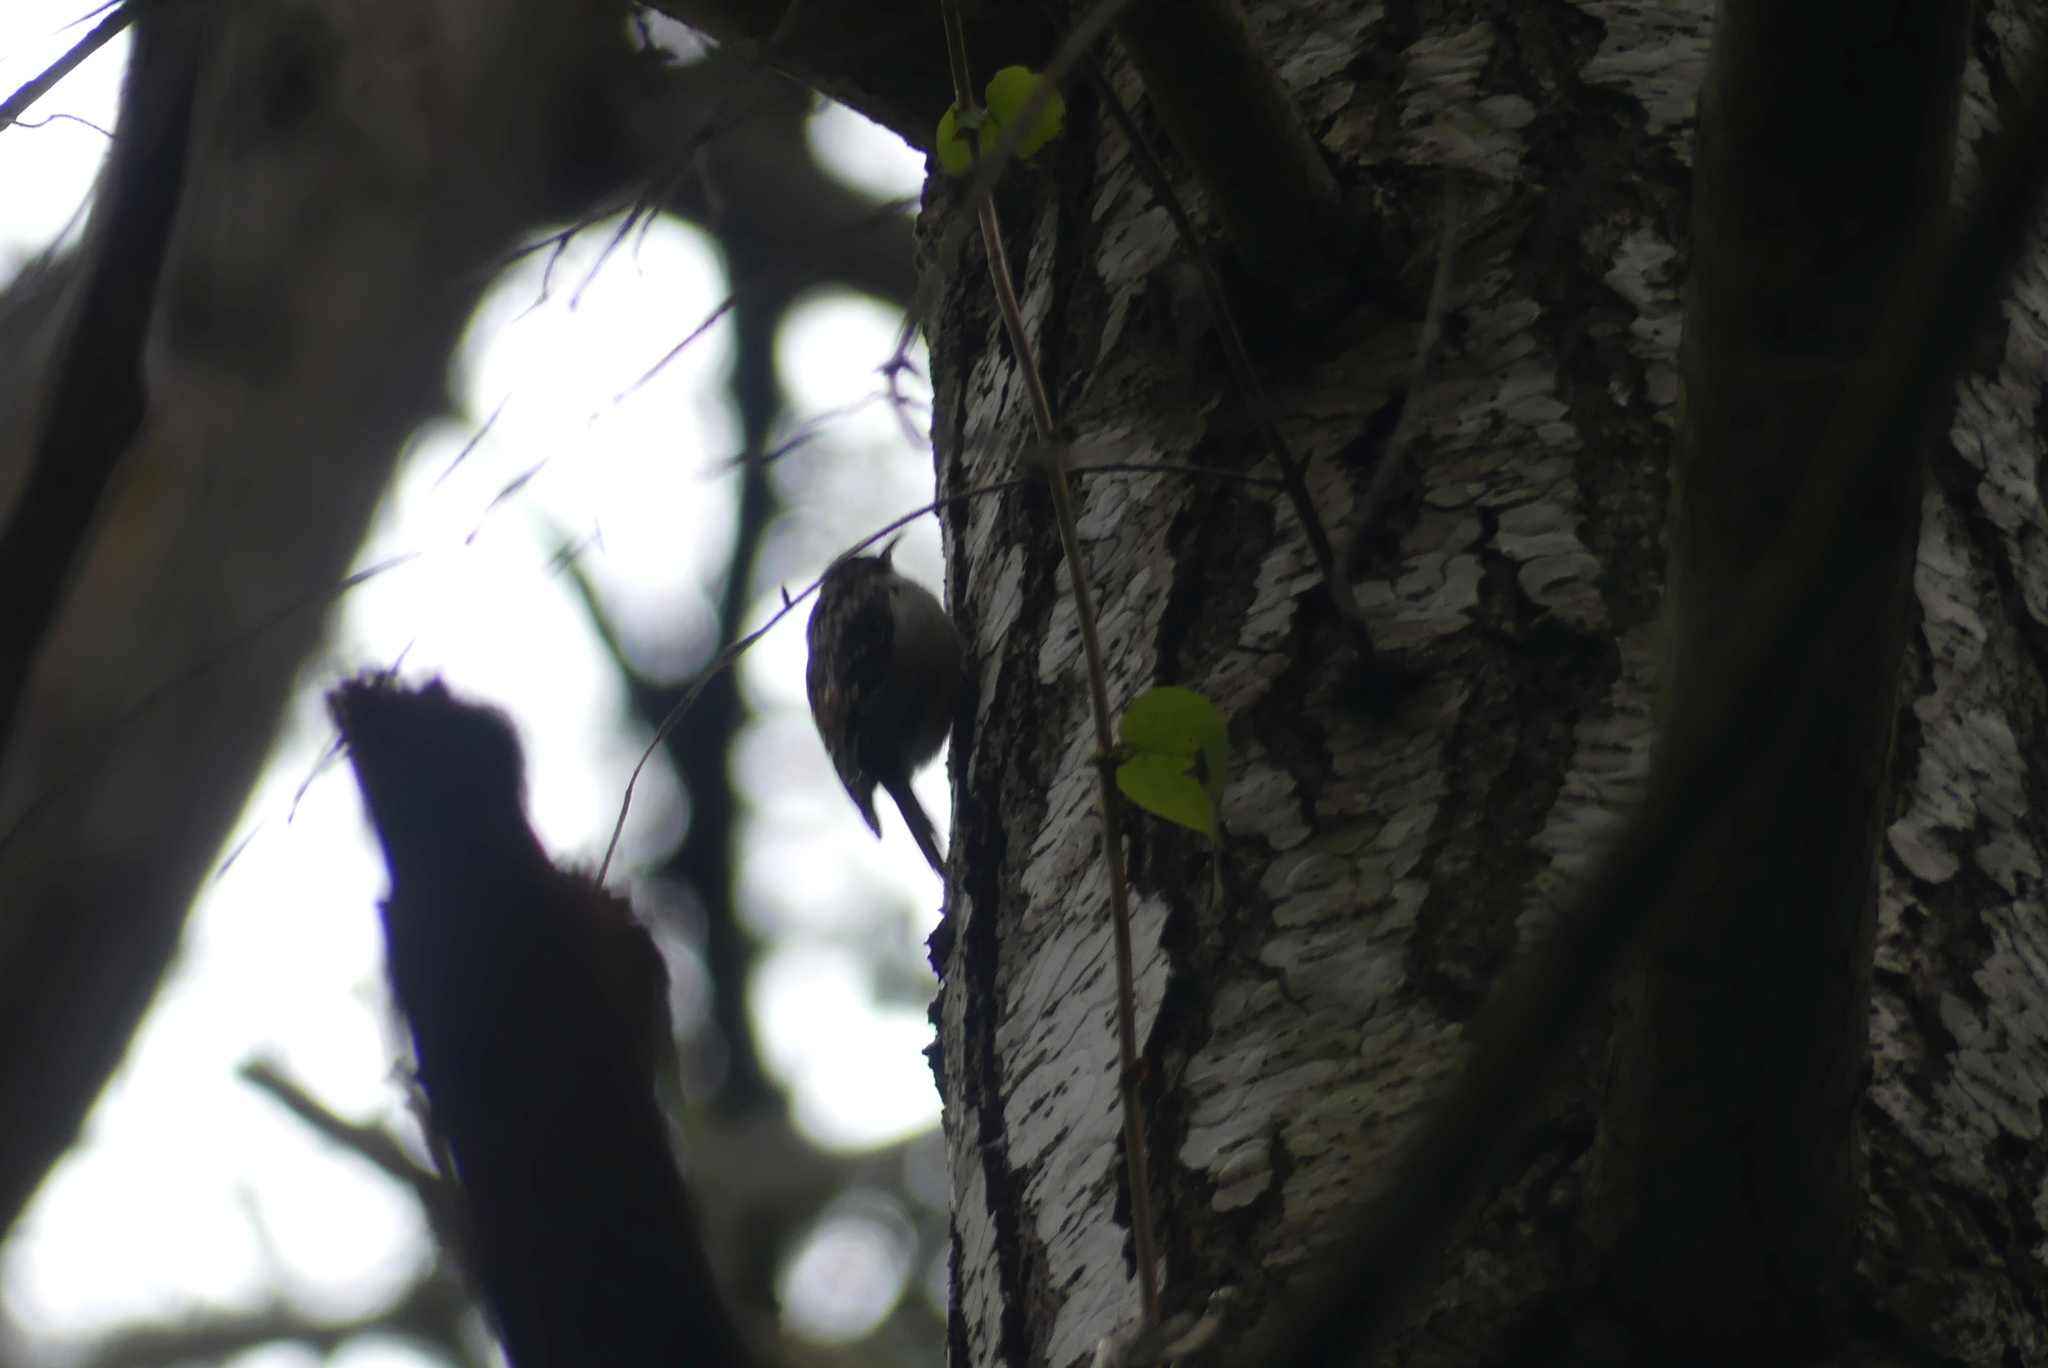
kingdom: Animalia
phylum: Chordata
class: Aves
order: Passeriformes
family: Certhiidae
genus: Certhia
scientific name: Certhia americana
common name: Brown creeper
